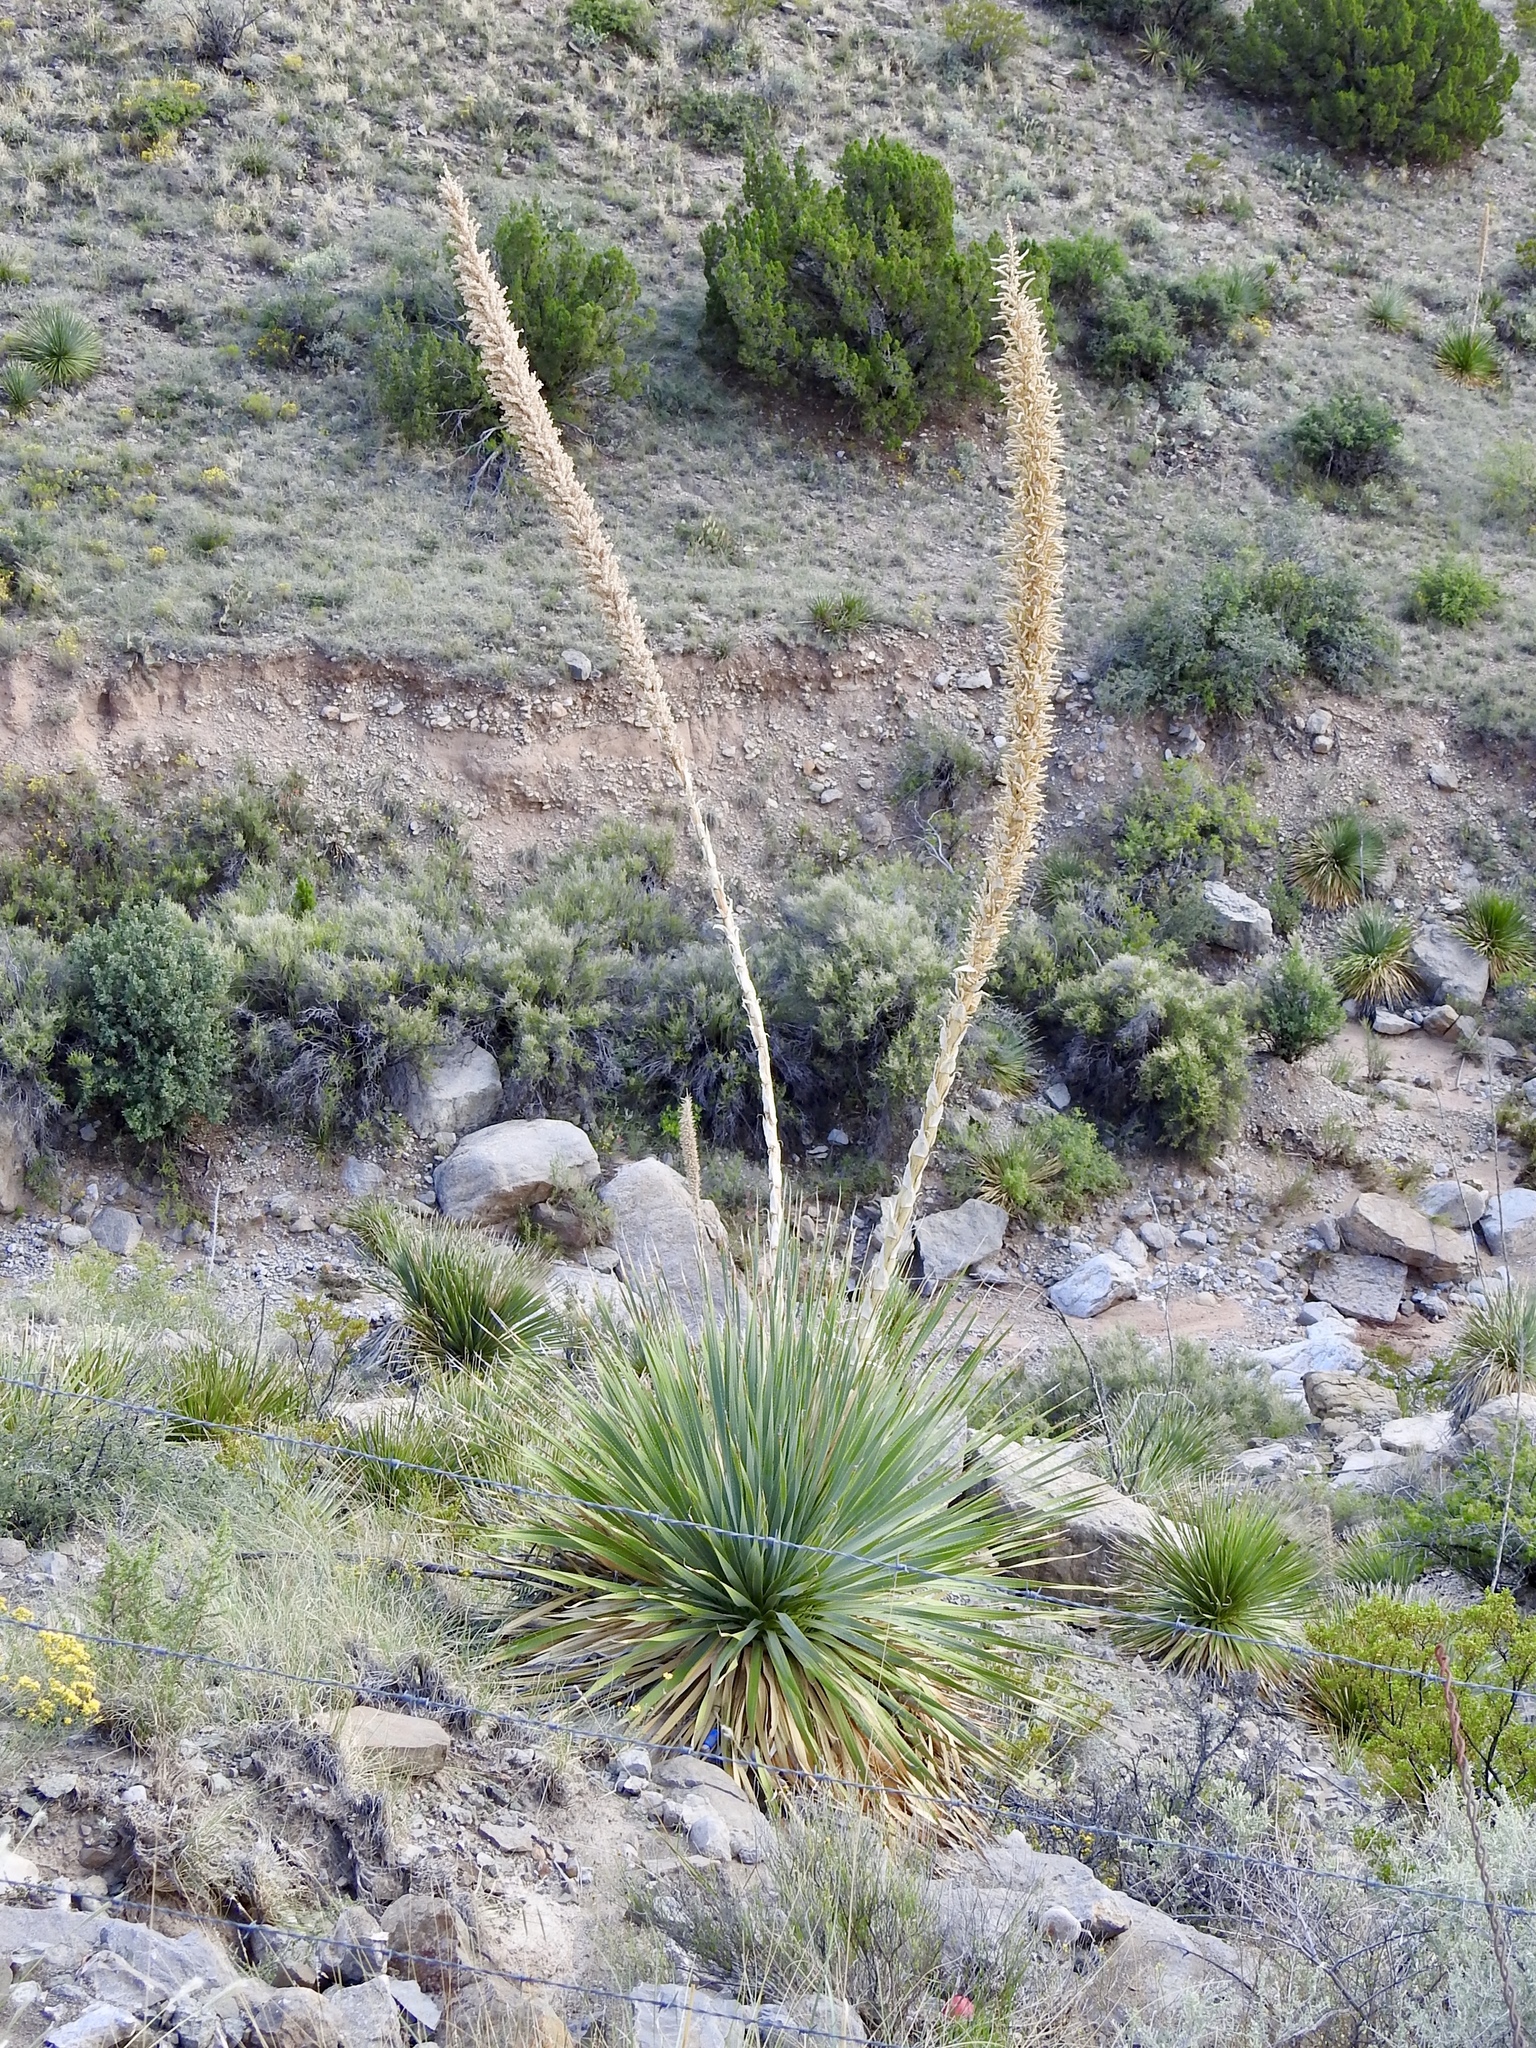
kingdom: Plantae
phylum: Tracheophyta
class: Liliopsida
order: Asparagales
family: Asparagaceae
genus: Dasylirion
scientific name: Dasylirion wheeleri
